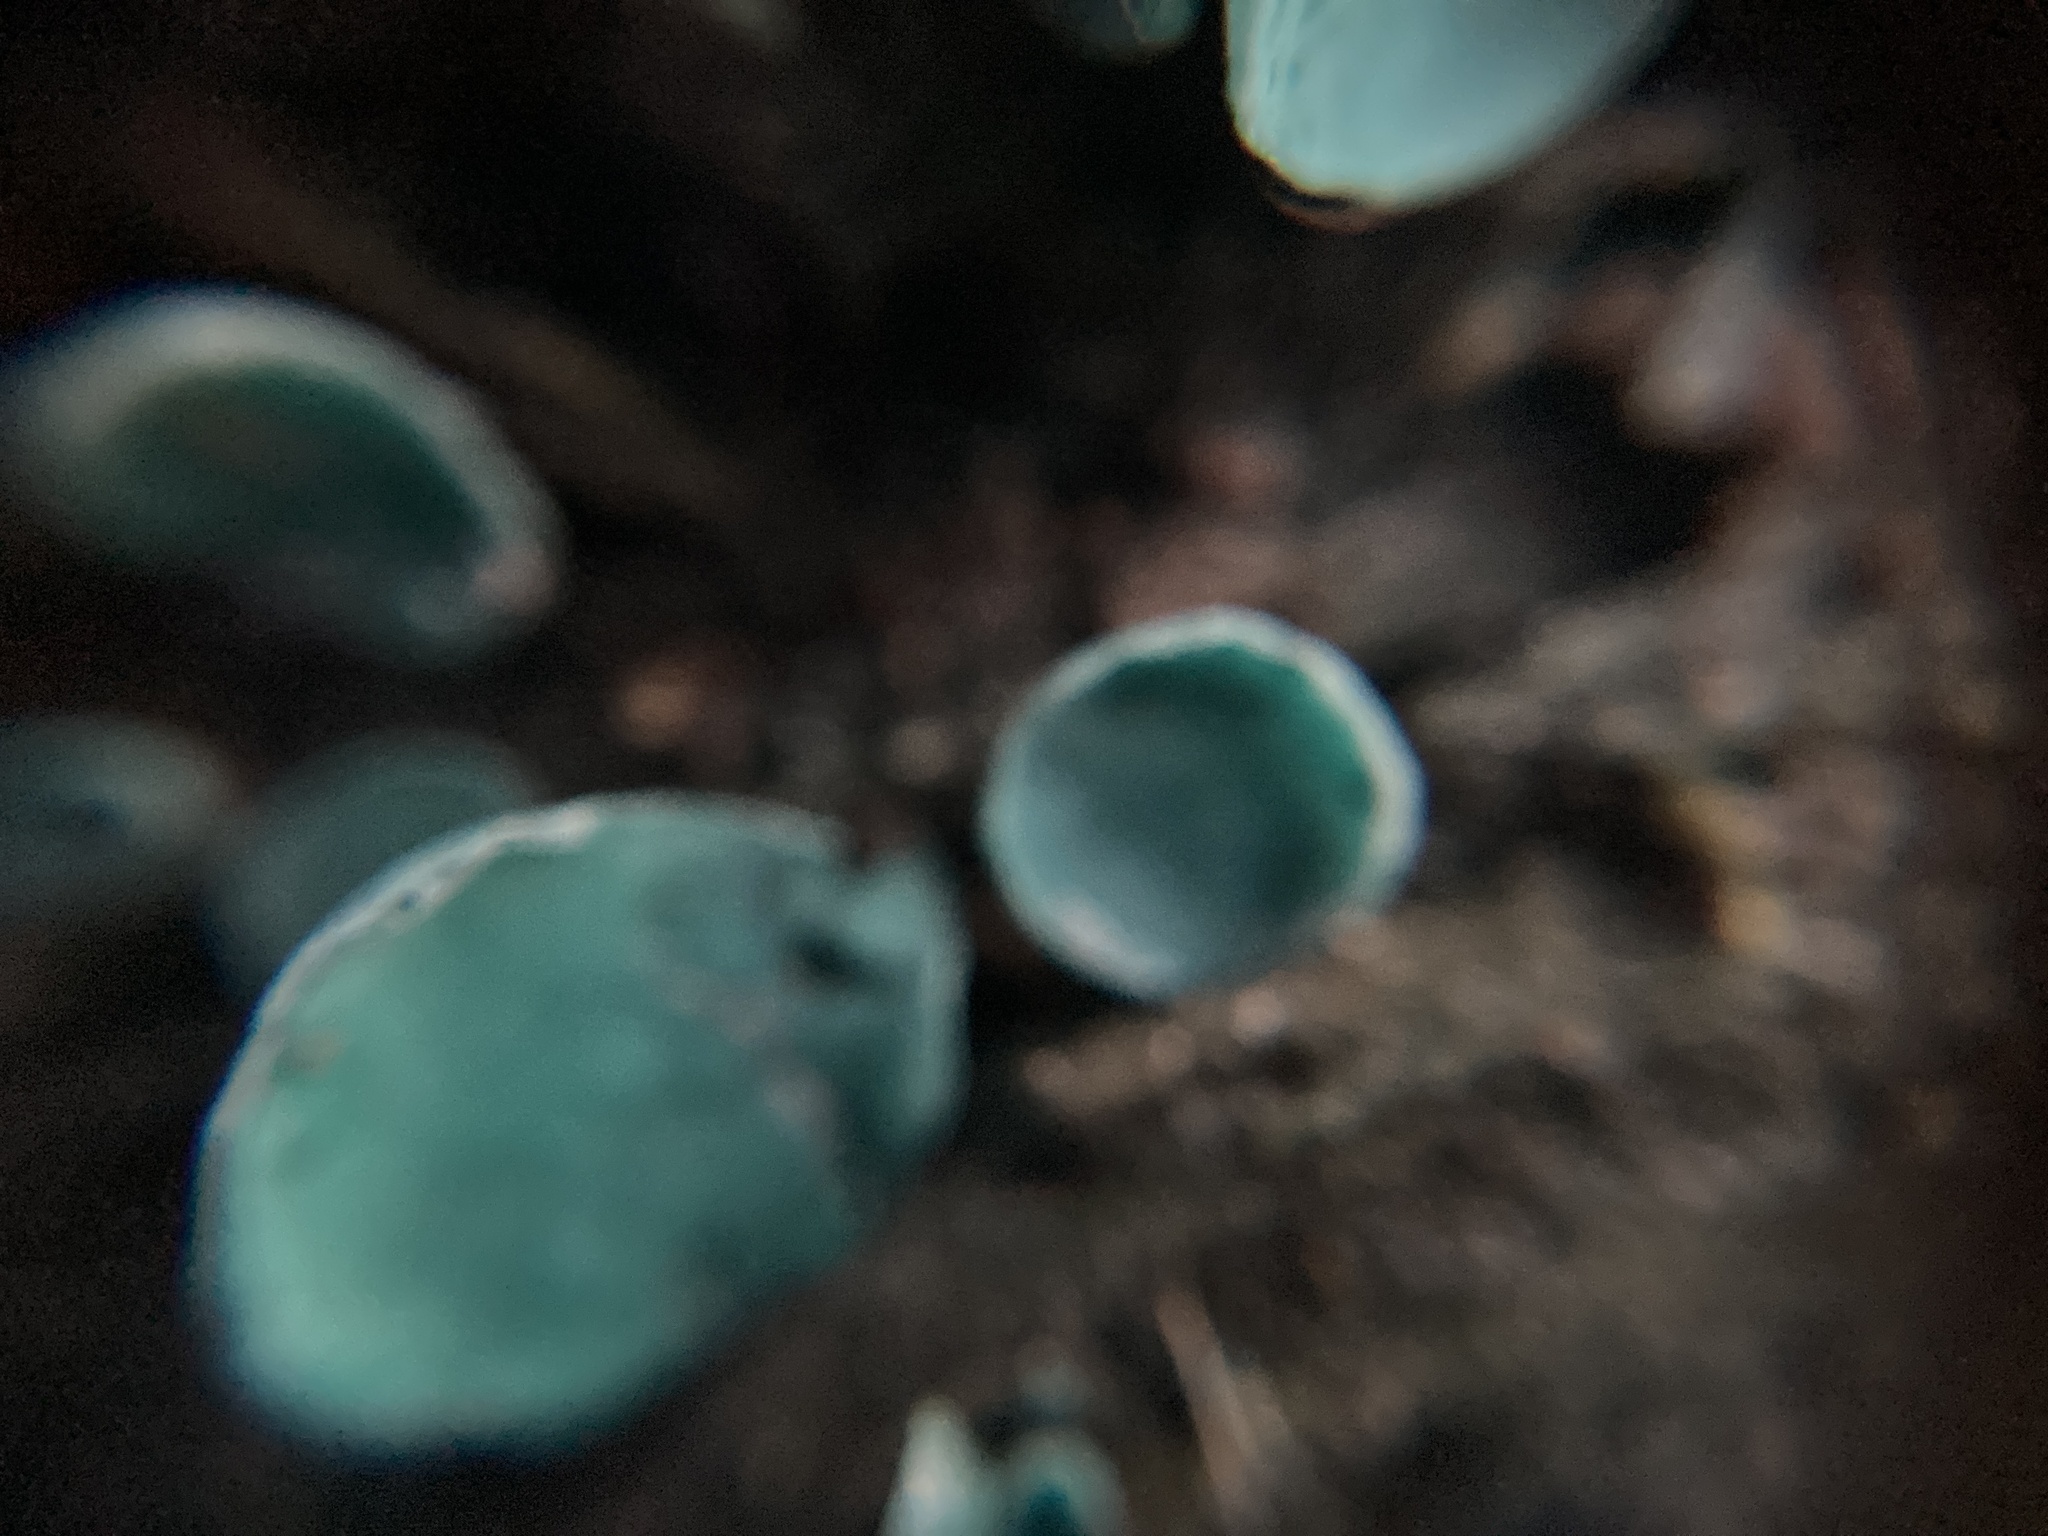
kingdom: Fungi
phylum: Ascomycota
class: Leotiomycetes
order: Helotiales
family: Chlorociboriaceae
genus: Chlorociboria
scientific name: Chlorociboria aeruginascens
